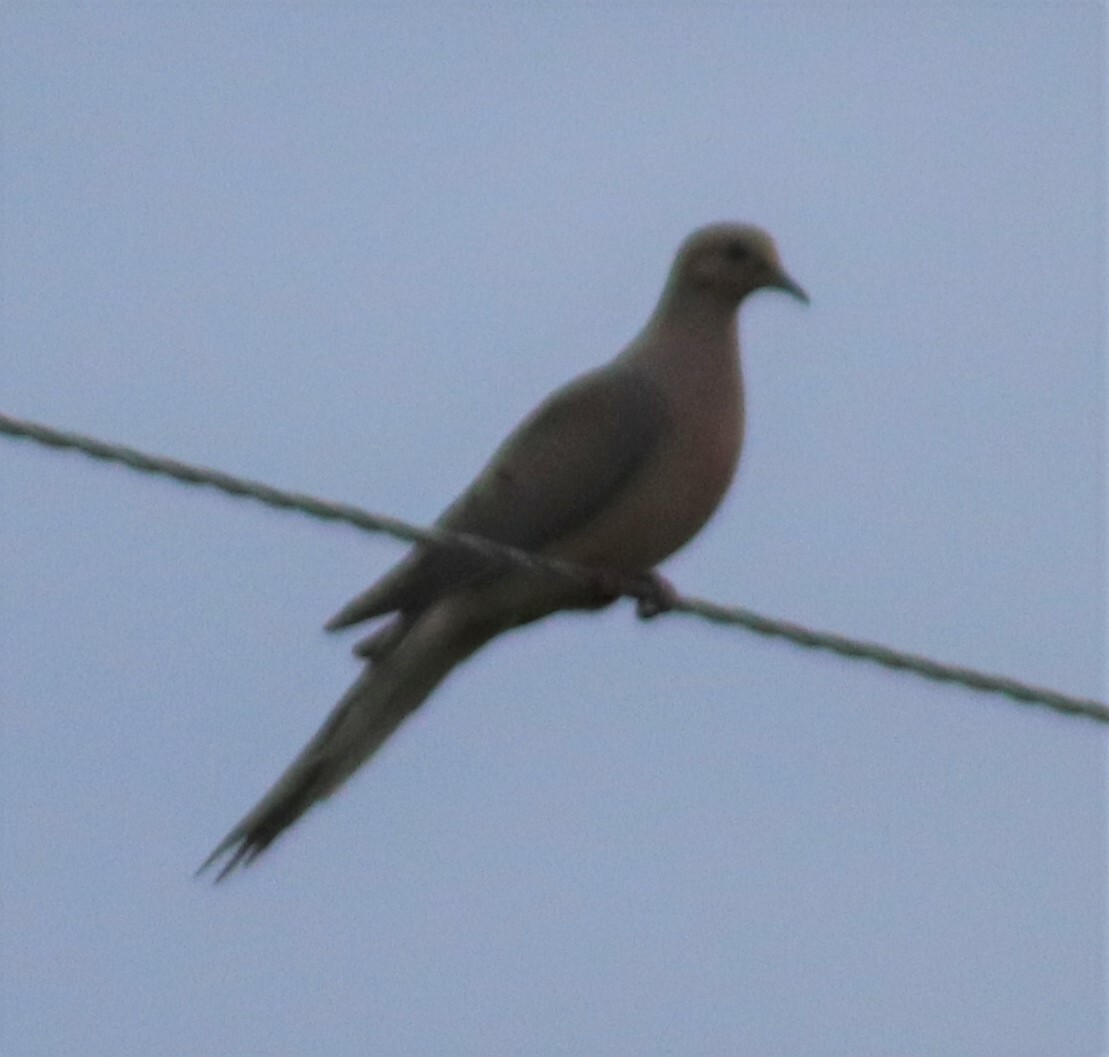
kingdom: Animalia
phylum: Chordata
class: Aves
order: Columbiformes
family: Columbidae
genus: Zenaida
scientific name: Zenaida macroura
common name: Mourning dove
